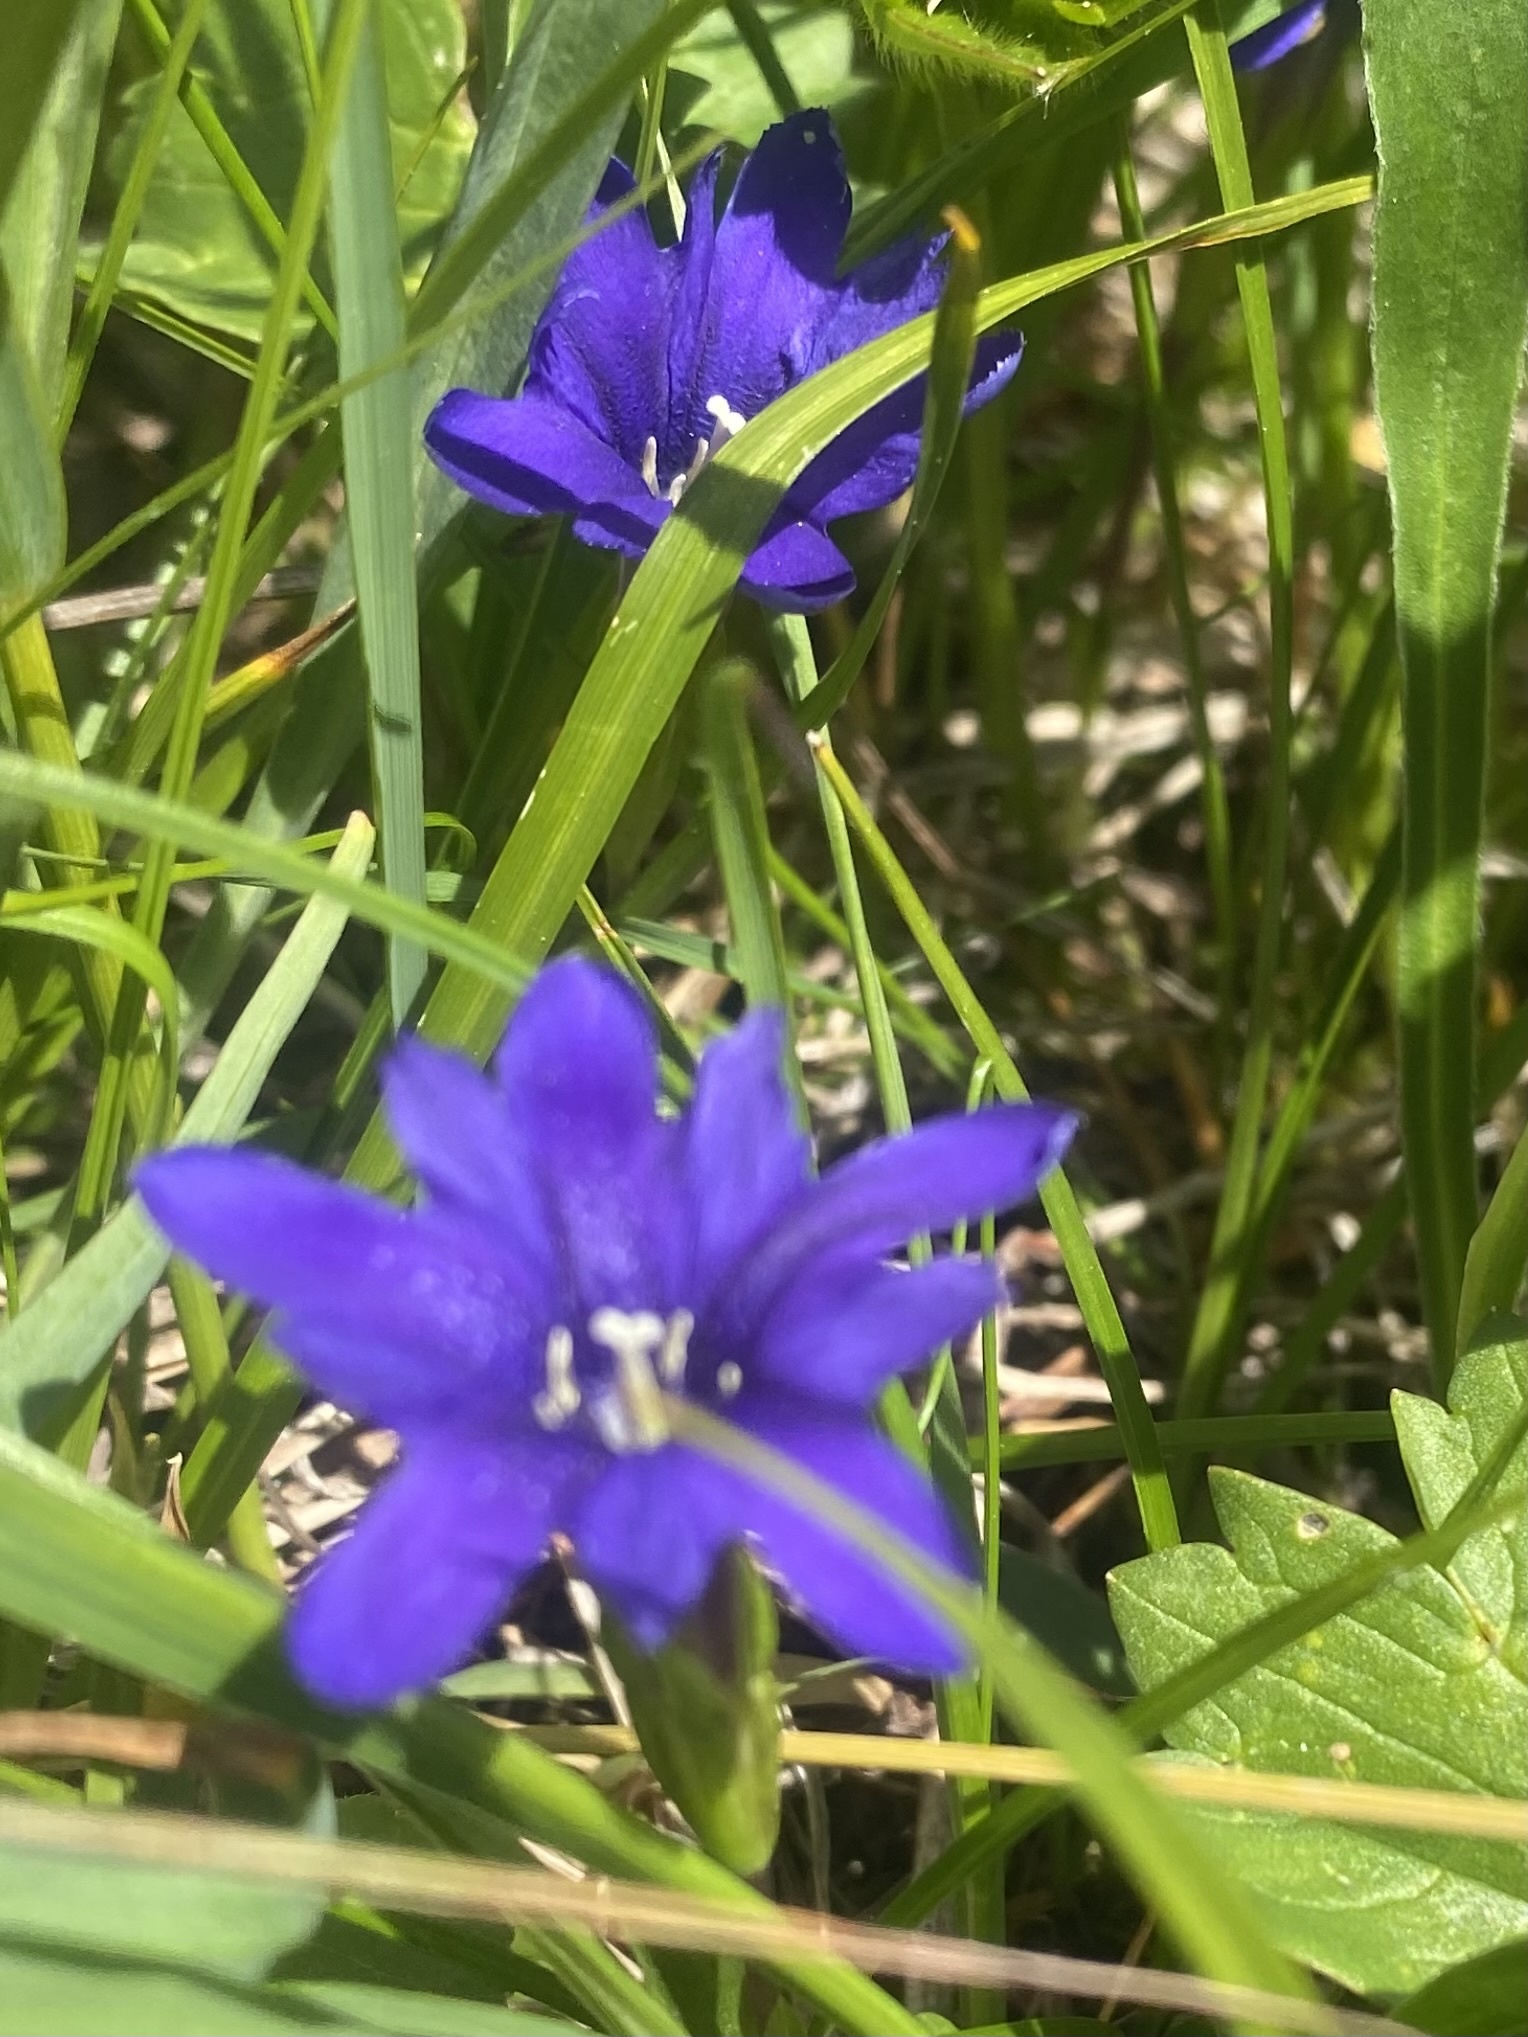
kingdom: Plantae
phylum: Tracheophyta
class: Magnoliopsida
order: Gentianales
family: Gentianaceae
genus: Gentiana
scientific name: Gentiana dshimilensis
